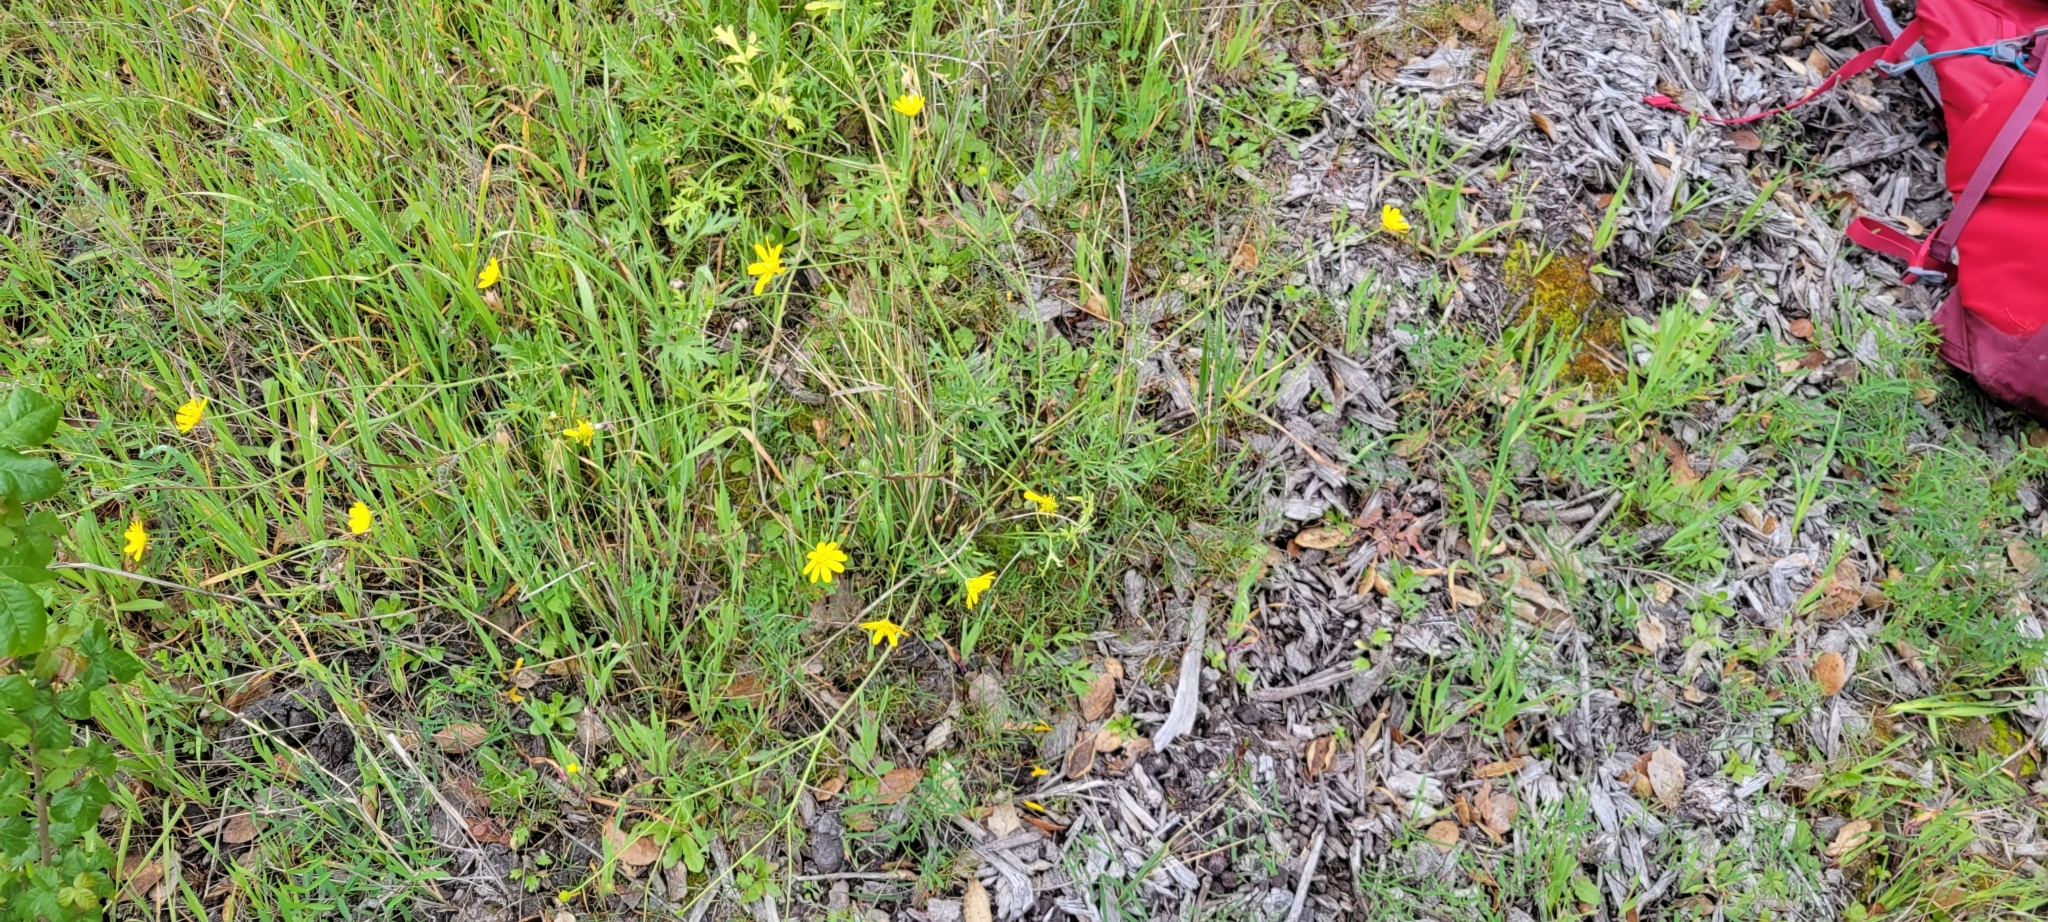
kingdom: Plantae
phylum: Tracheophyta
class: Magnoliopsida
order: Ranunculales
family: Ranunculaceae
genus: Ranunculus
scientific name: Ranunculus californicus
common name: California buttercup
